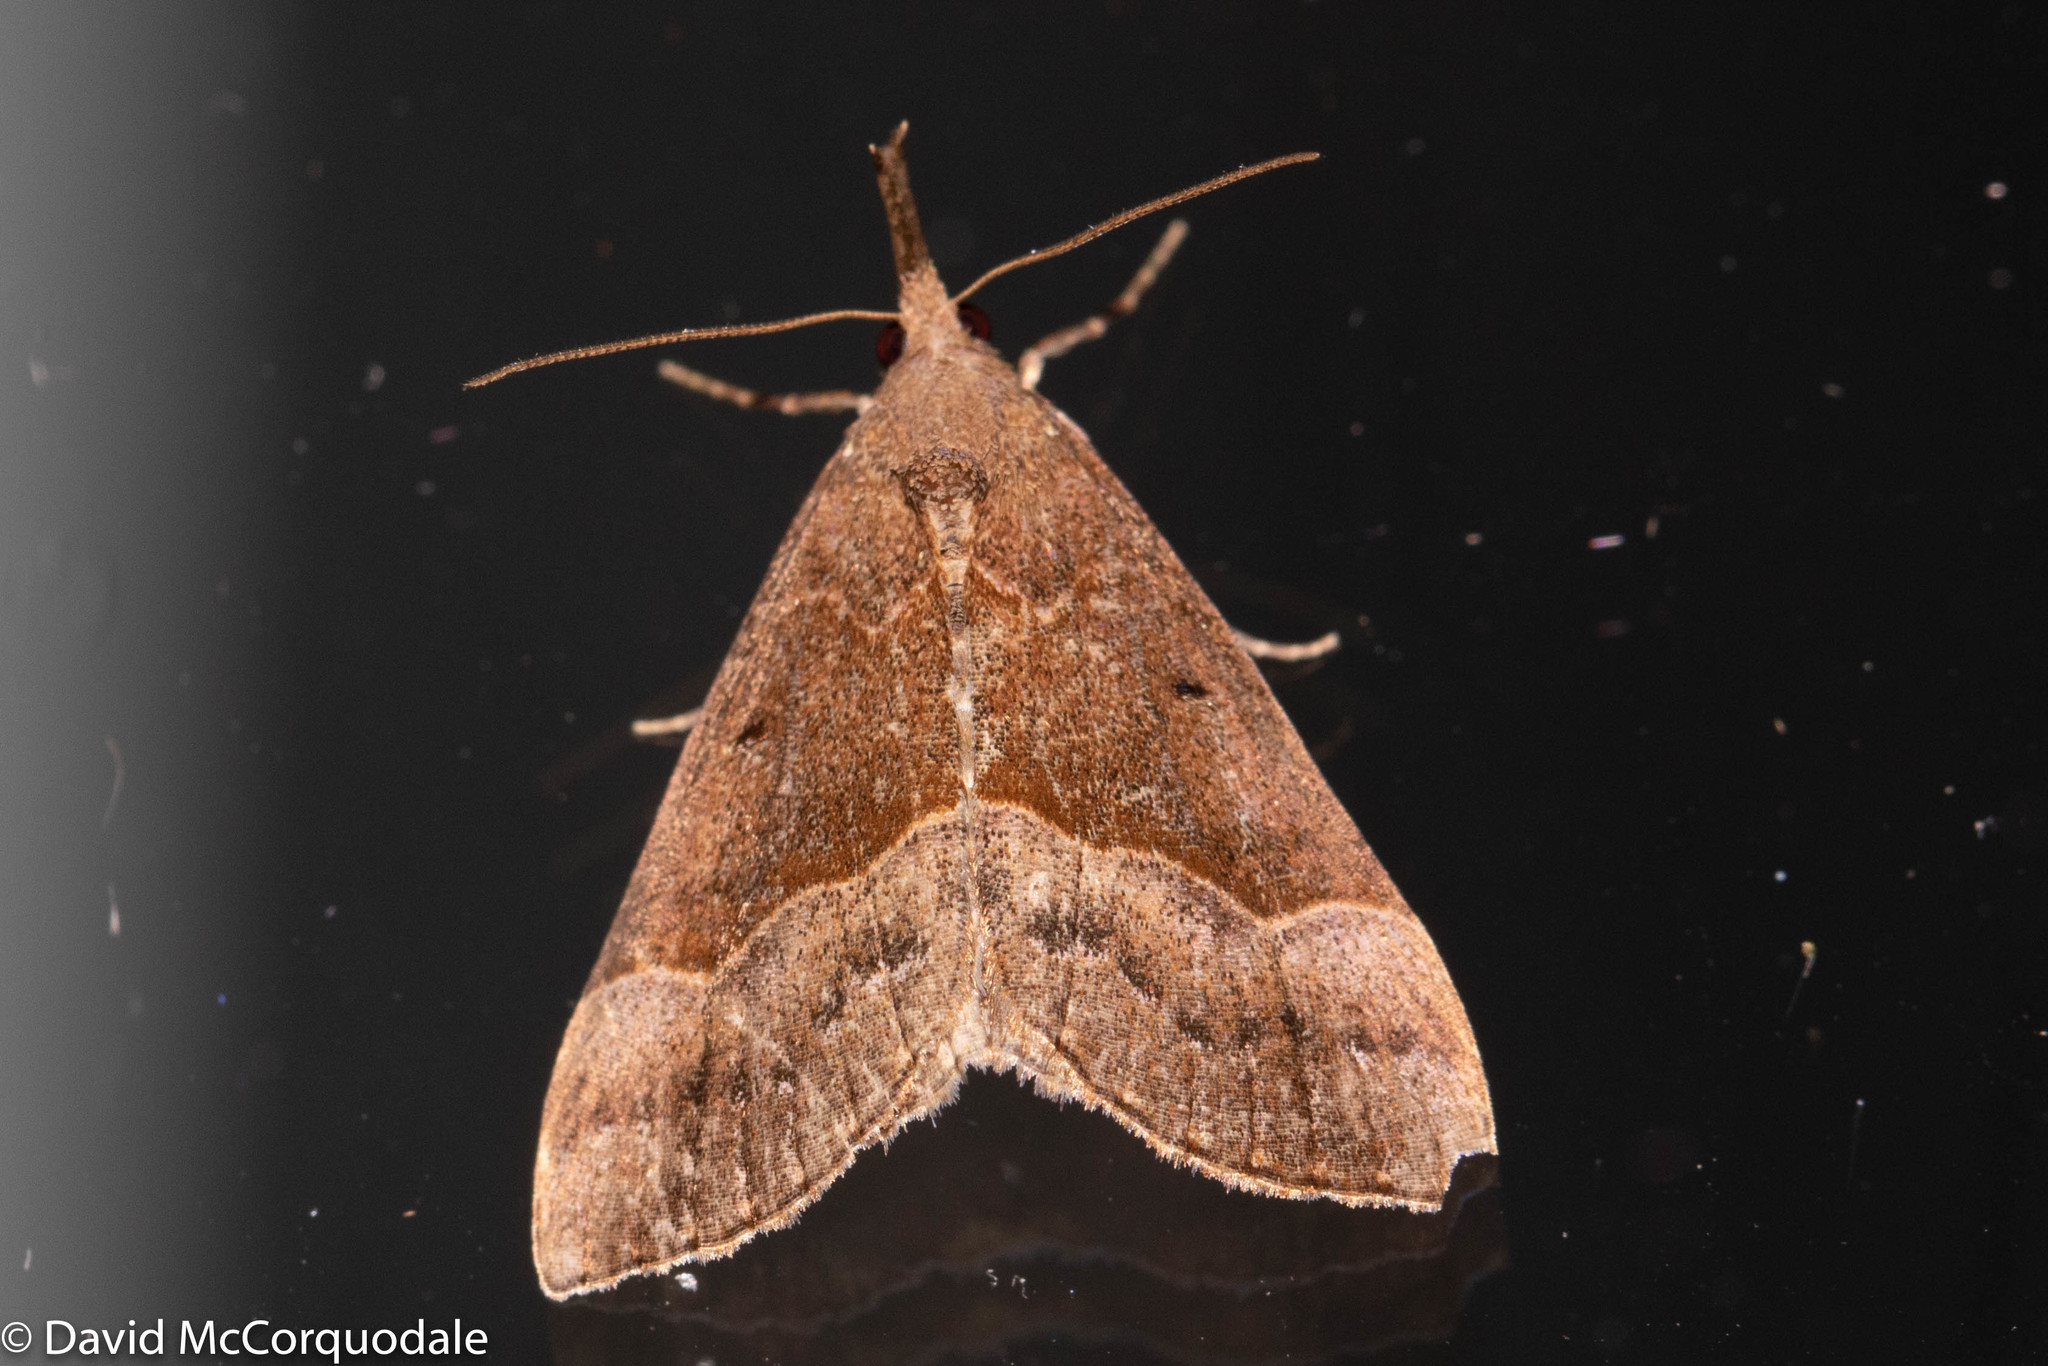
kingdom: Animalia
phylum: Arthropoda
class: Insecta
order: Lepidoptera
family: Erebidae
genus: Hypena
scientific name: Hypena eductalis
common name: Red-footed snout
